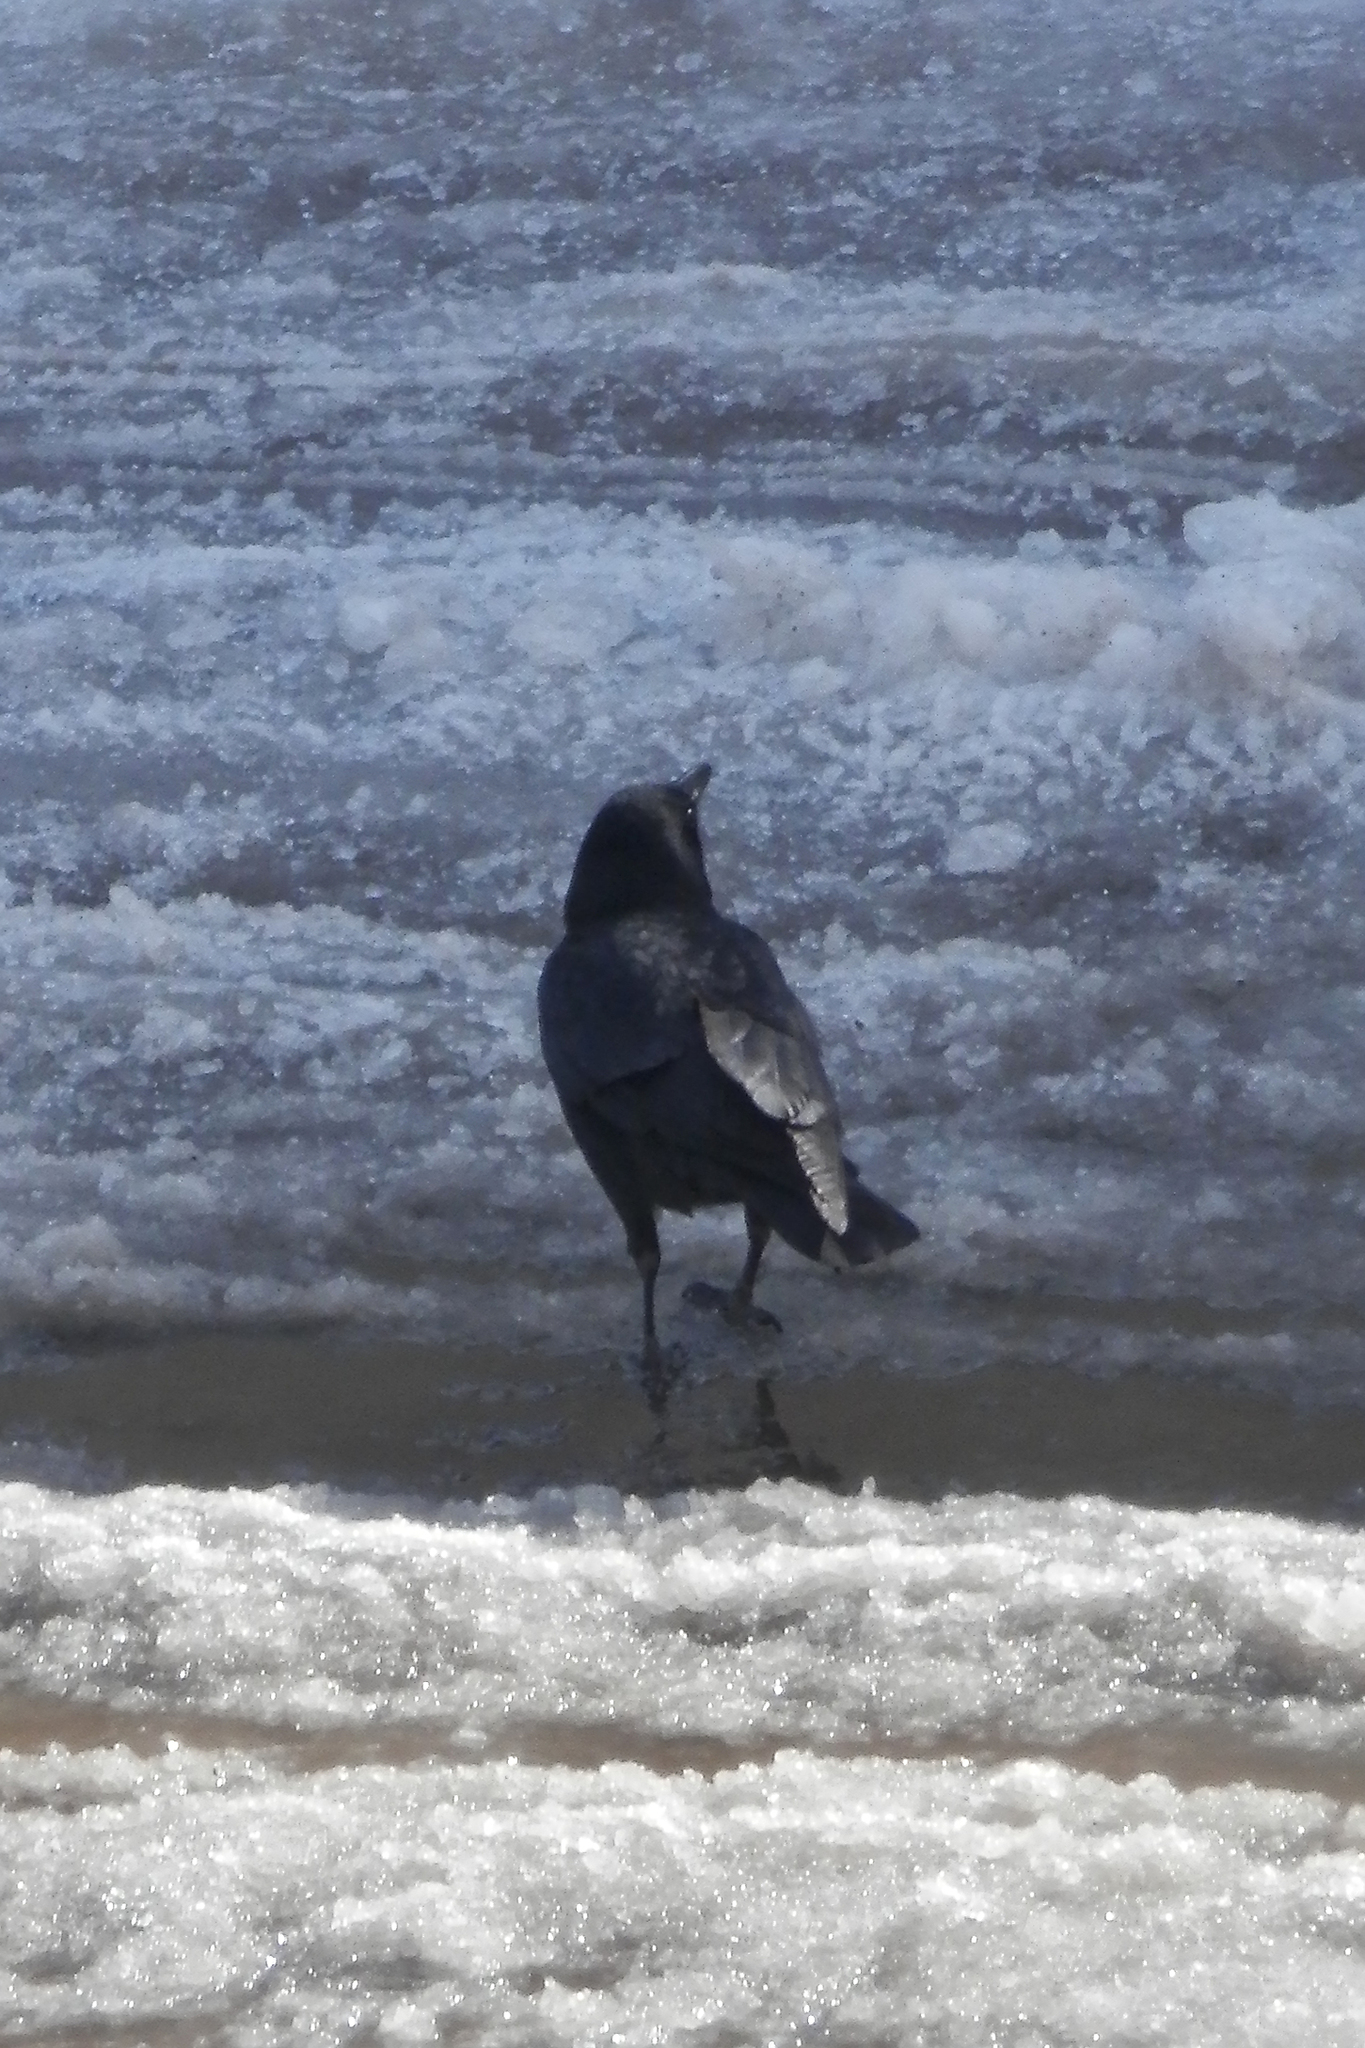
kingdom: Animalia
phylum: Chordata
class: Aves
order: Passeriformes
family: Corvidae
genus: Corvus
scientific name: Corvus brachyrhynchos
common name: American crow
